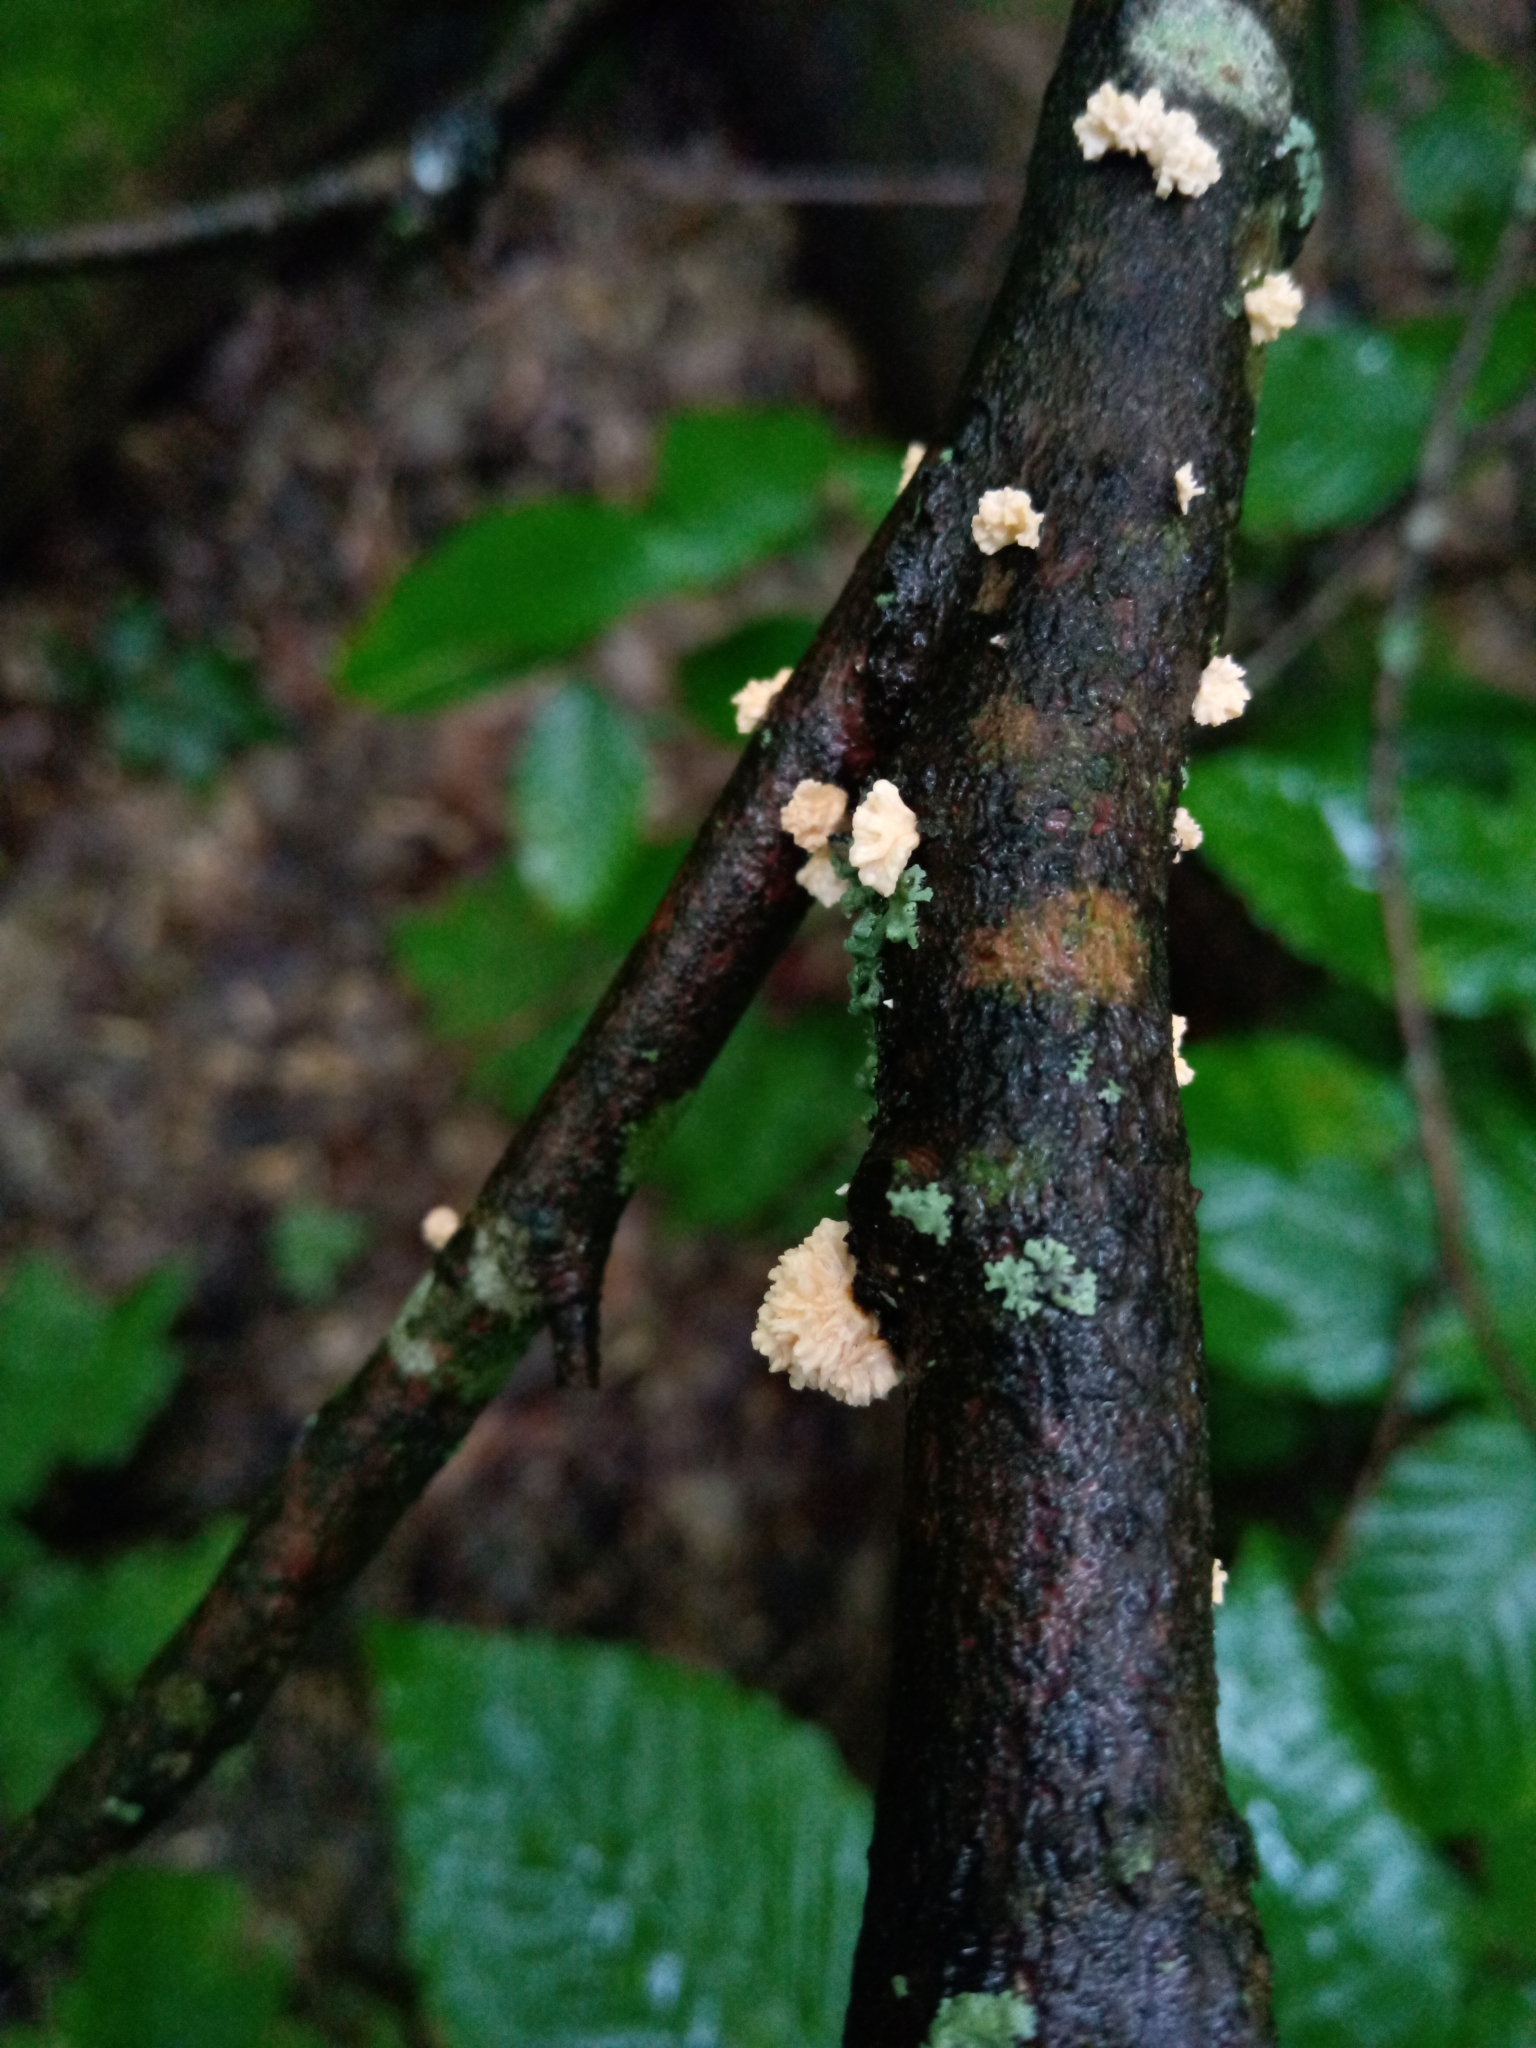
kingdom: Fungi
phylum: Ascomycota
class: Sordariomycetes
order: Xylariales
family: Xylariaceae
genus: Xylaria
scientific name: Xylaria cubensis
